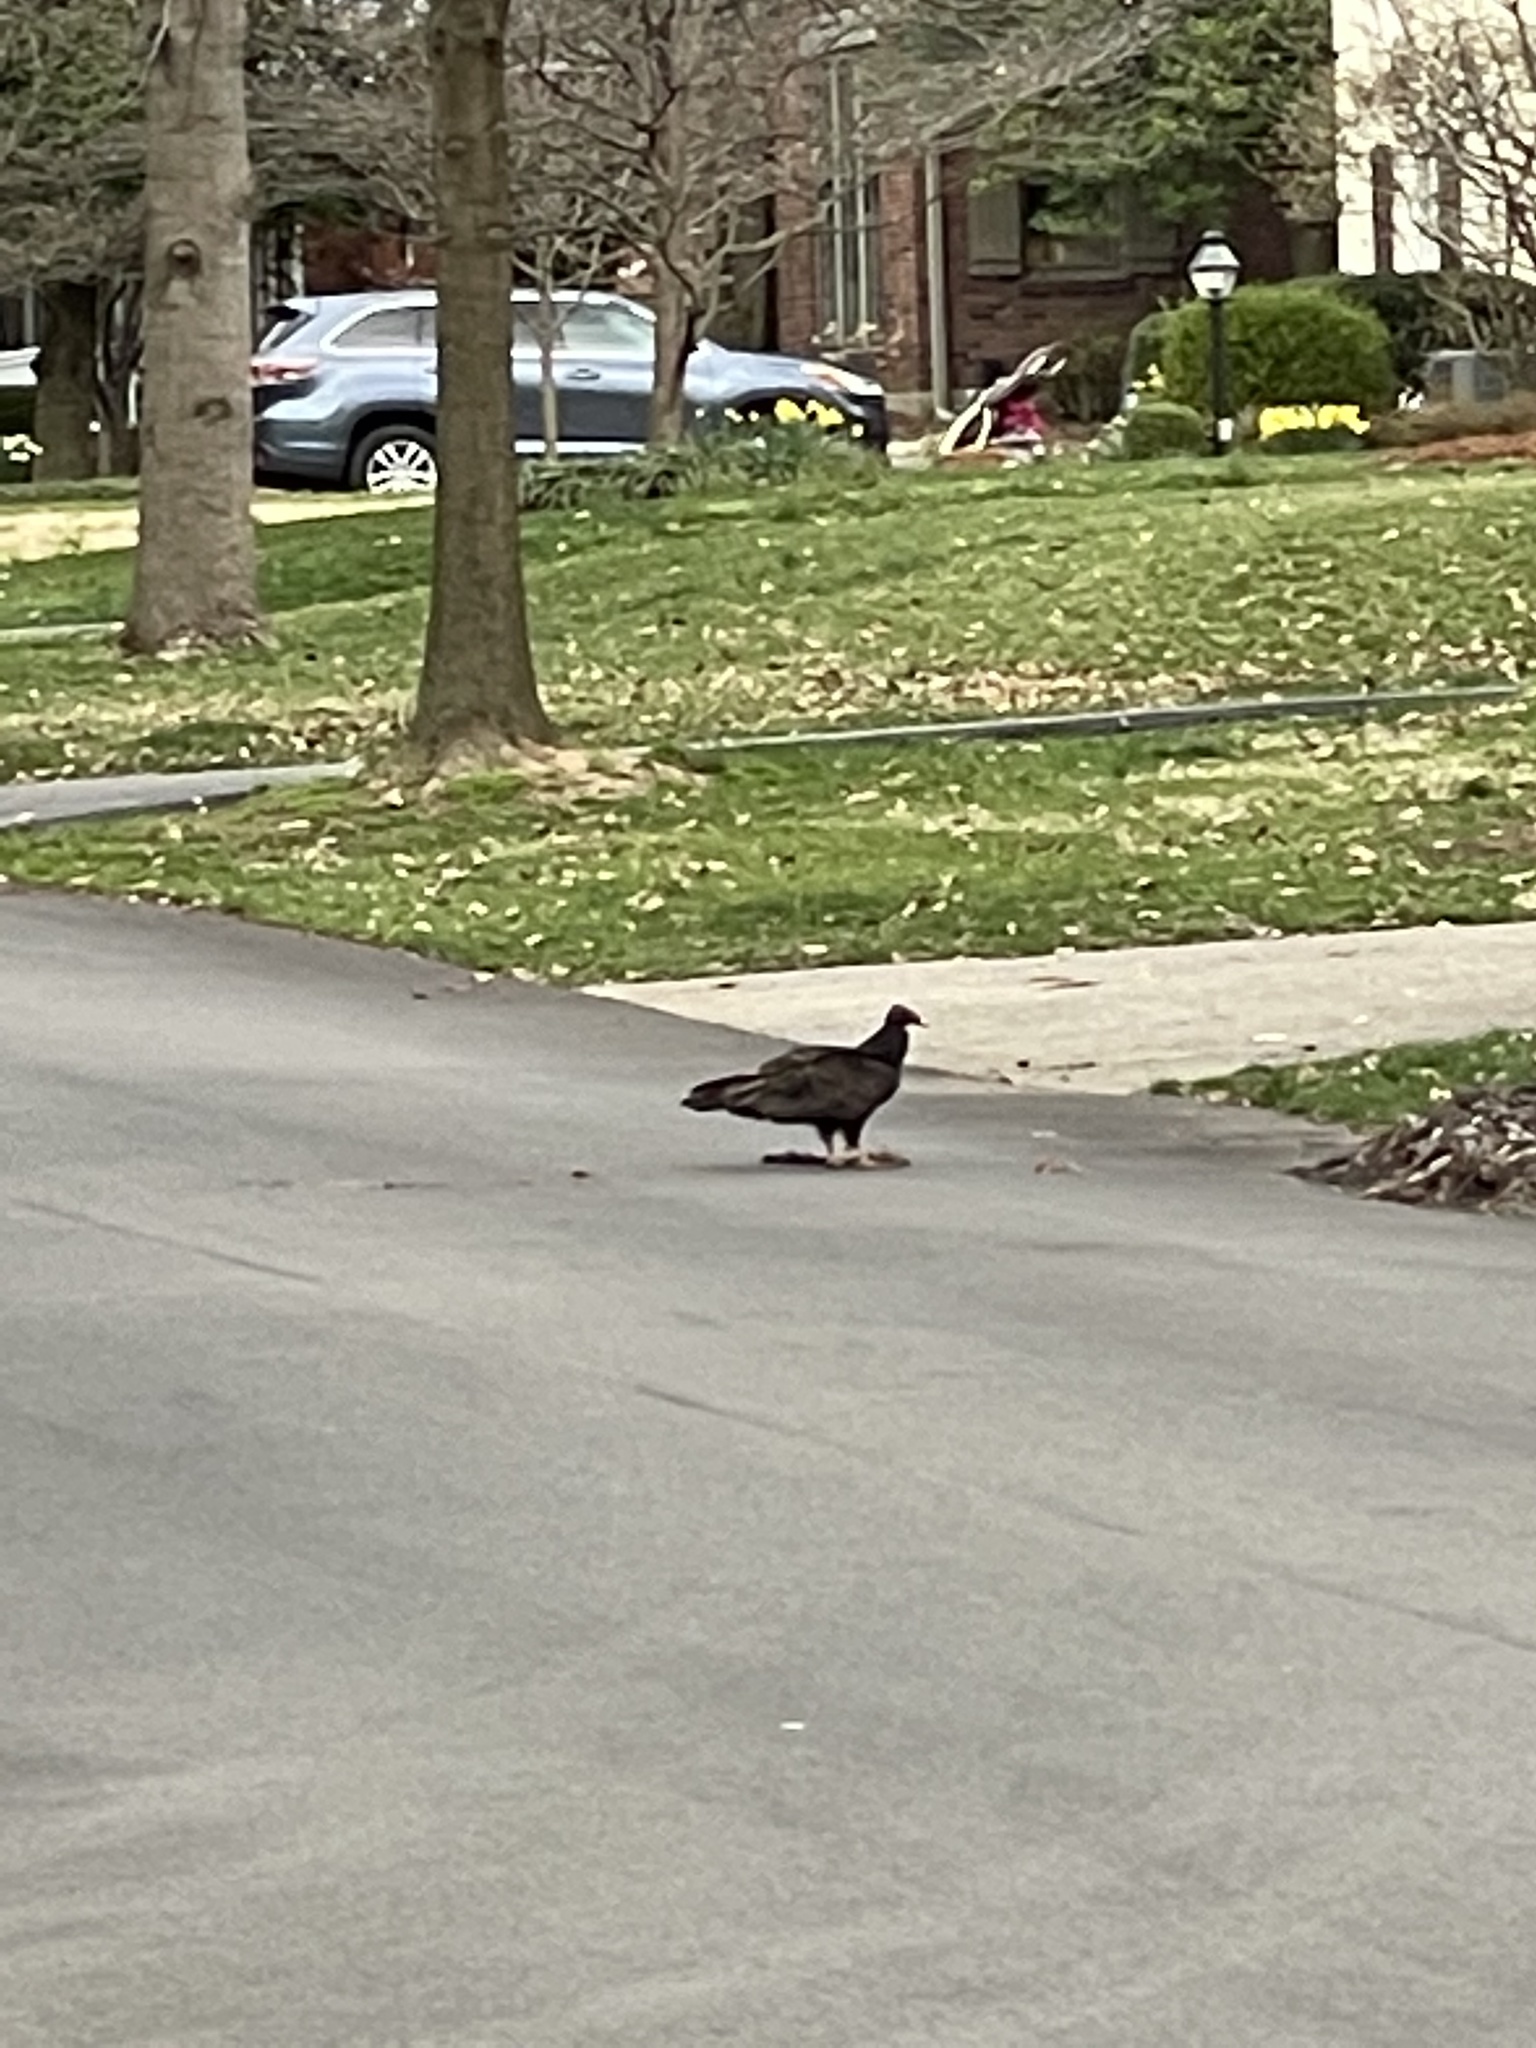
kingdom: Animalia
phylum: Chordata
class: Aves
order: Accipitriformes
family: Cathartidae
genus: Cathartes
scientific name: Cathartes aura
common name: Turkey vulture
